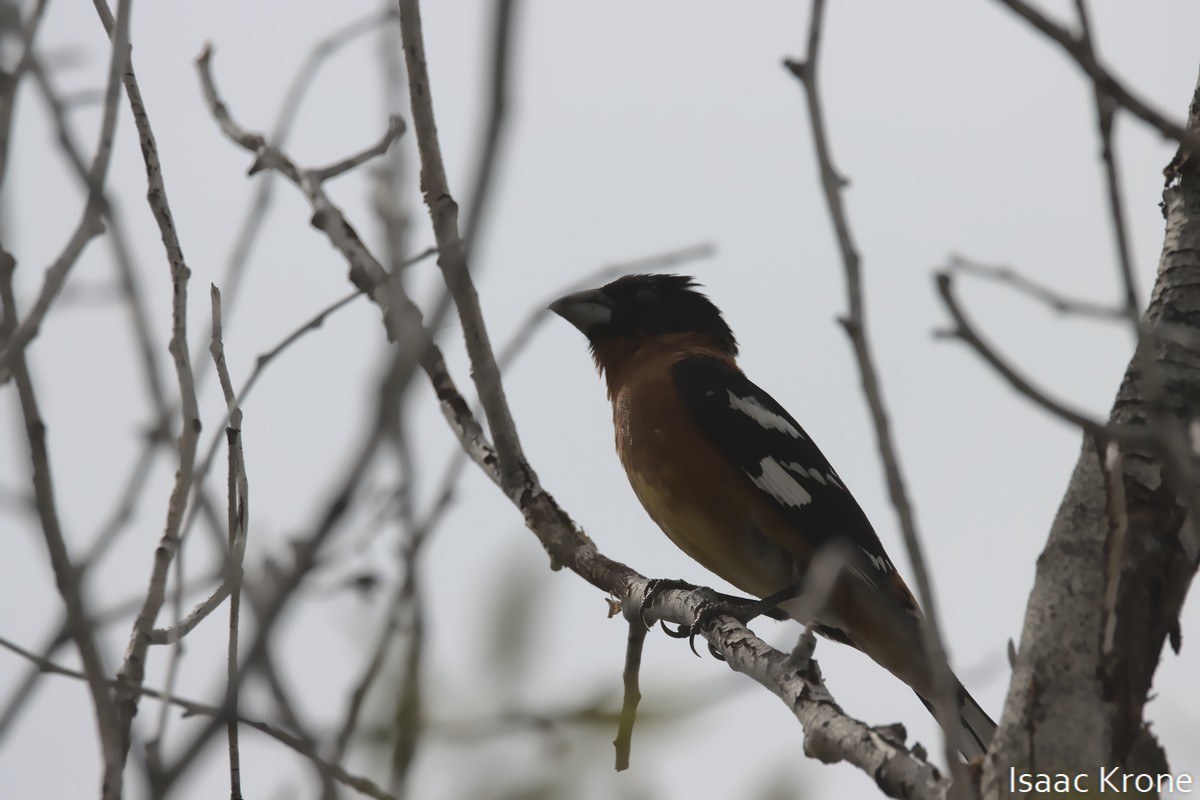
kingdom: Animalia
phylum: Chordata
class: Aves
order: Passeriformes
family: Cardinalidae
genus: Pheucticus
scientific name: Pheucticus melanocephalus
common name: Black-headed grosbeak
